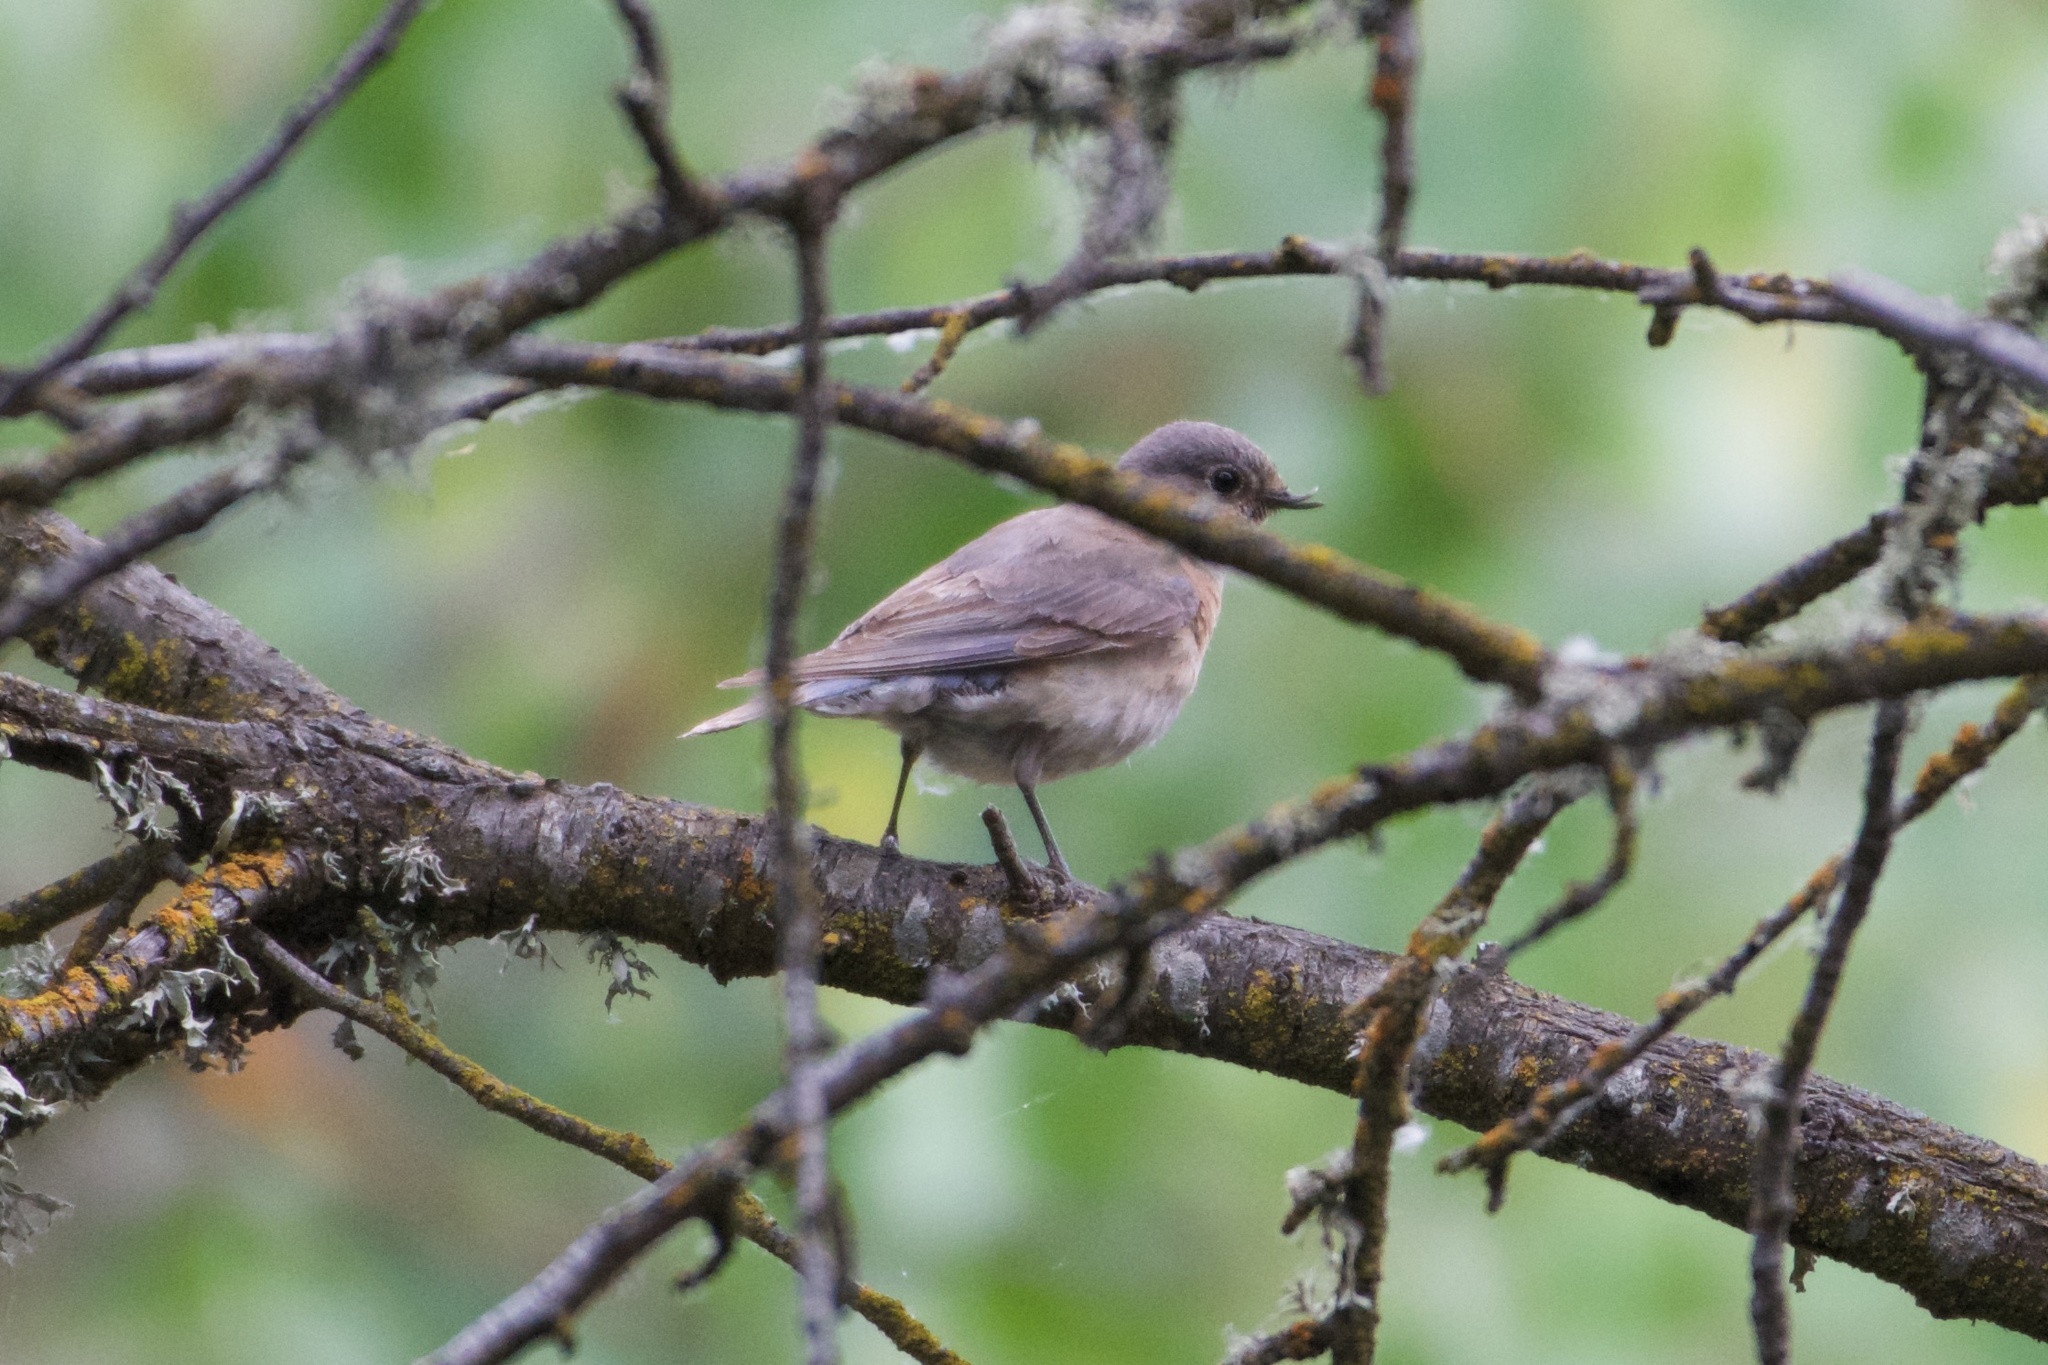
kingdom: Animalia
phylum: Chordata
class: Aves
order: Passeriformes
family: Turdidae
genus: Sialia
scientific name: Sialia mexicana
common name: Western bluebird
